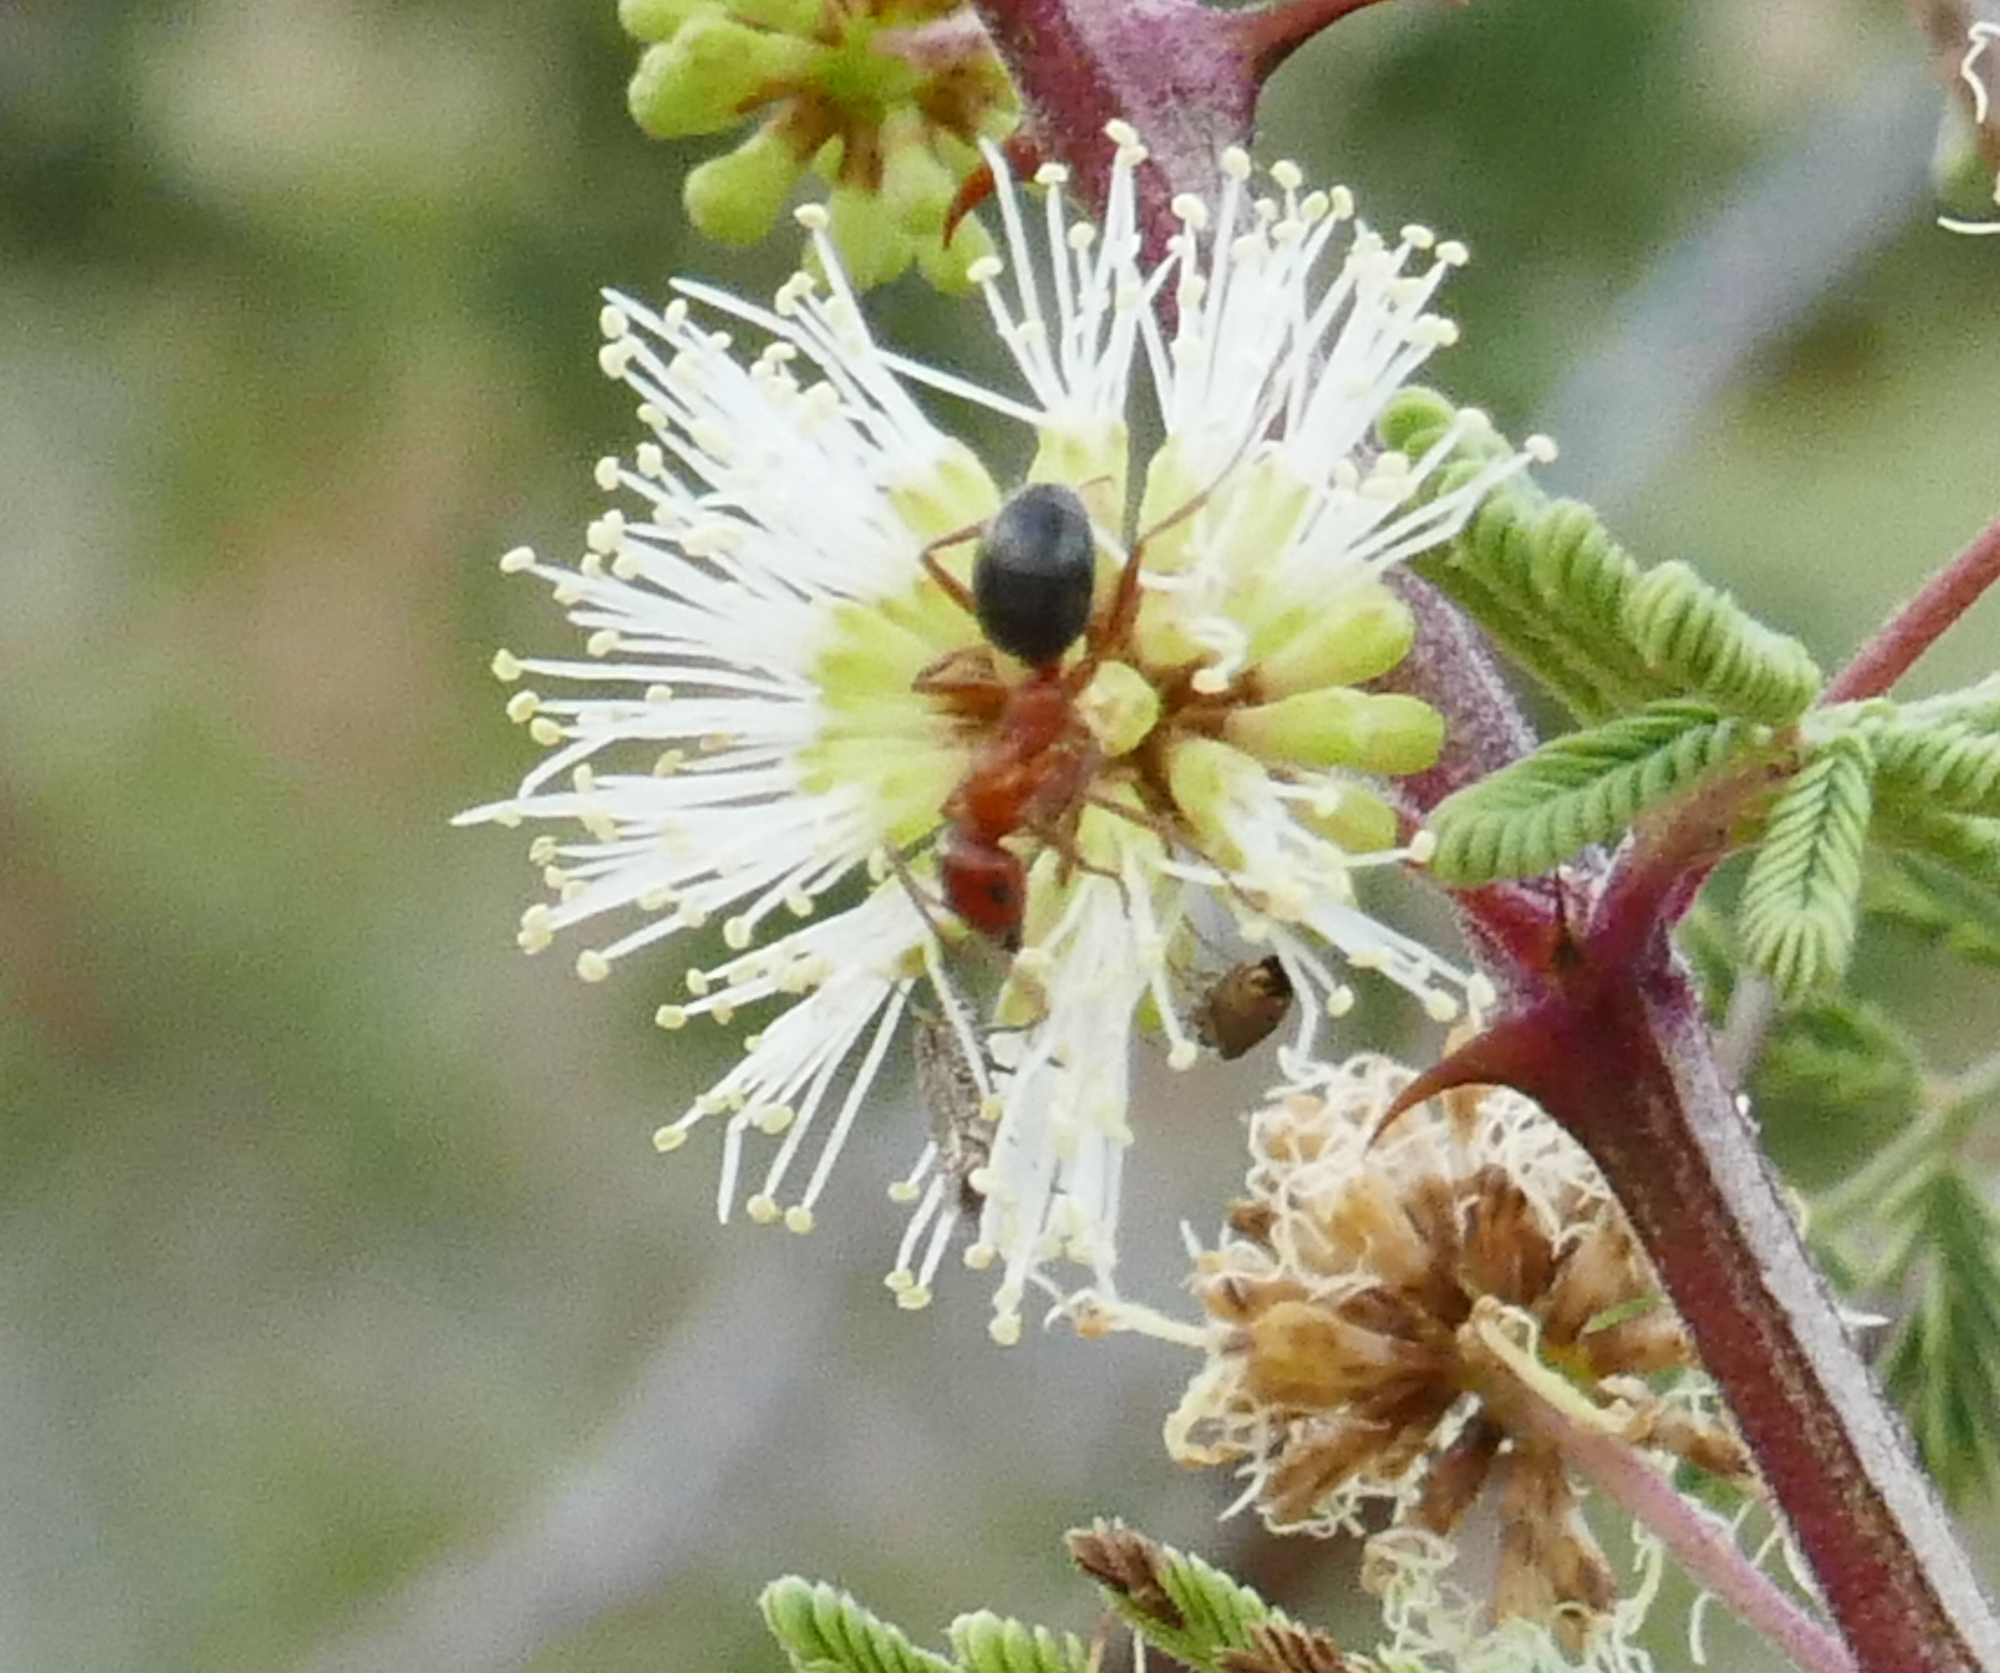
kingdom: Animalia
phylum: Arthropoda
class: Insecta
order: Hymenoptera
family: Formicidae
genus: Formica
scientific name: Formica perpilosa
